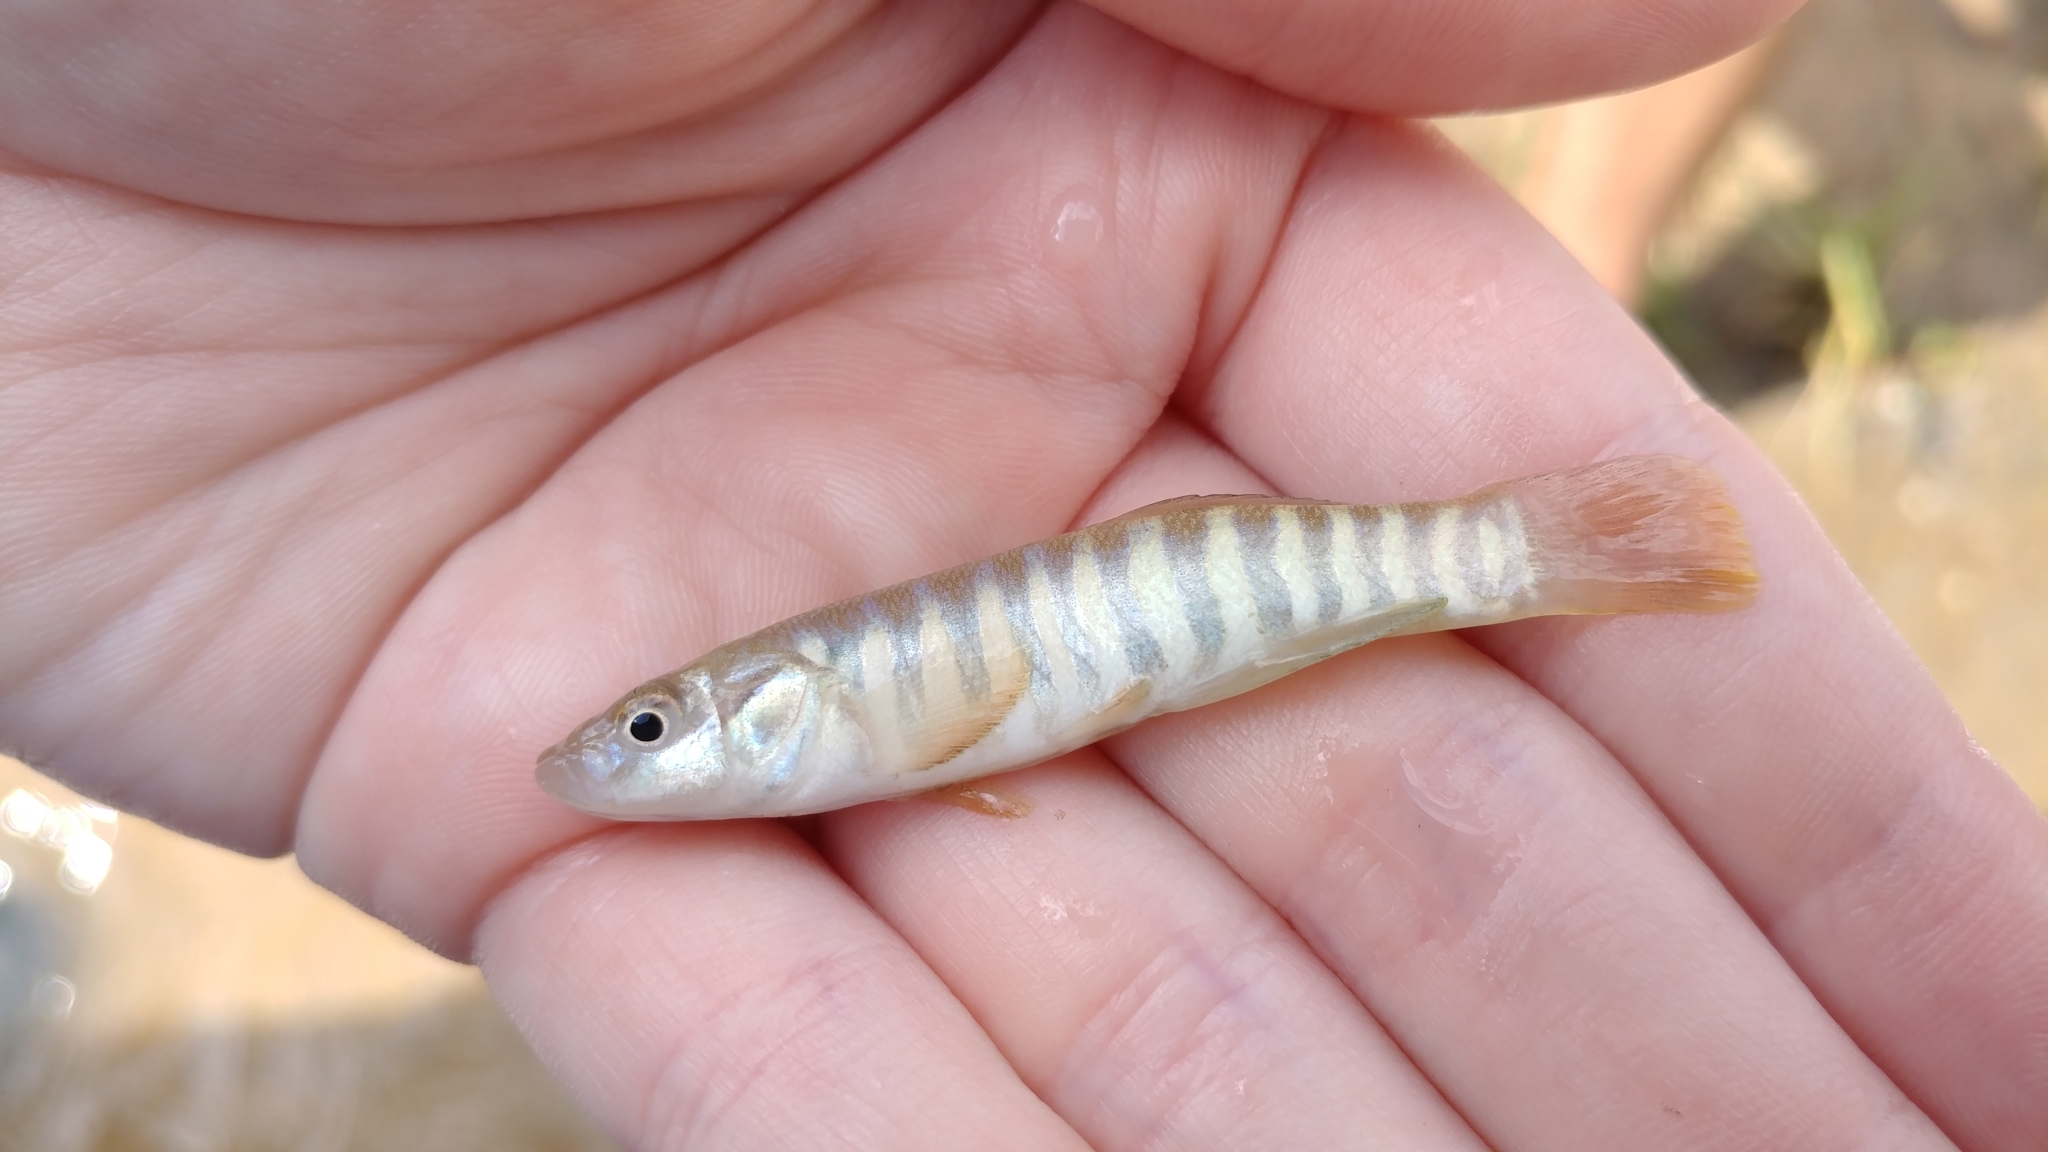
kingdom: Animalia
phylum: Chordata
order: Cyprinodontiformes
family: Fundulidae
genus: Fundulus
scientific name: Fundulus kansae
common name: Northern plains killifish
